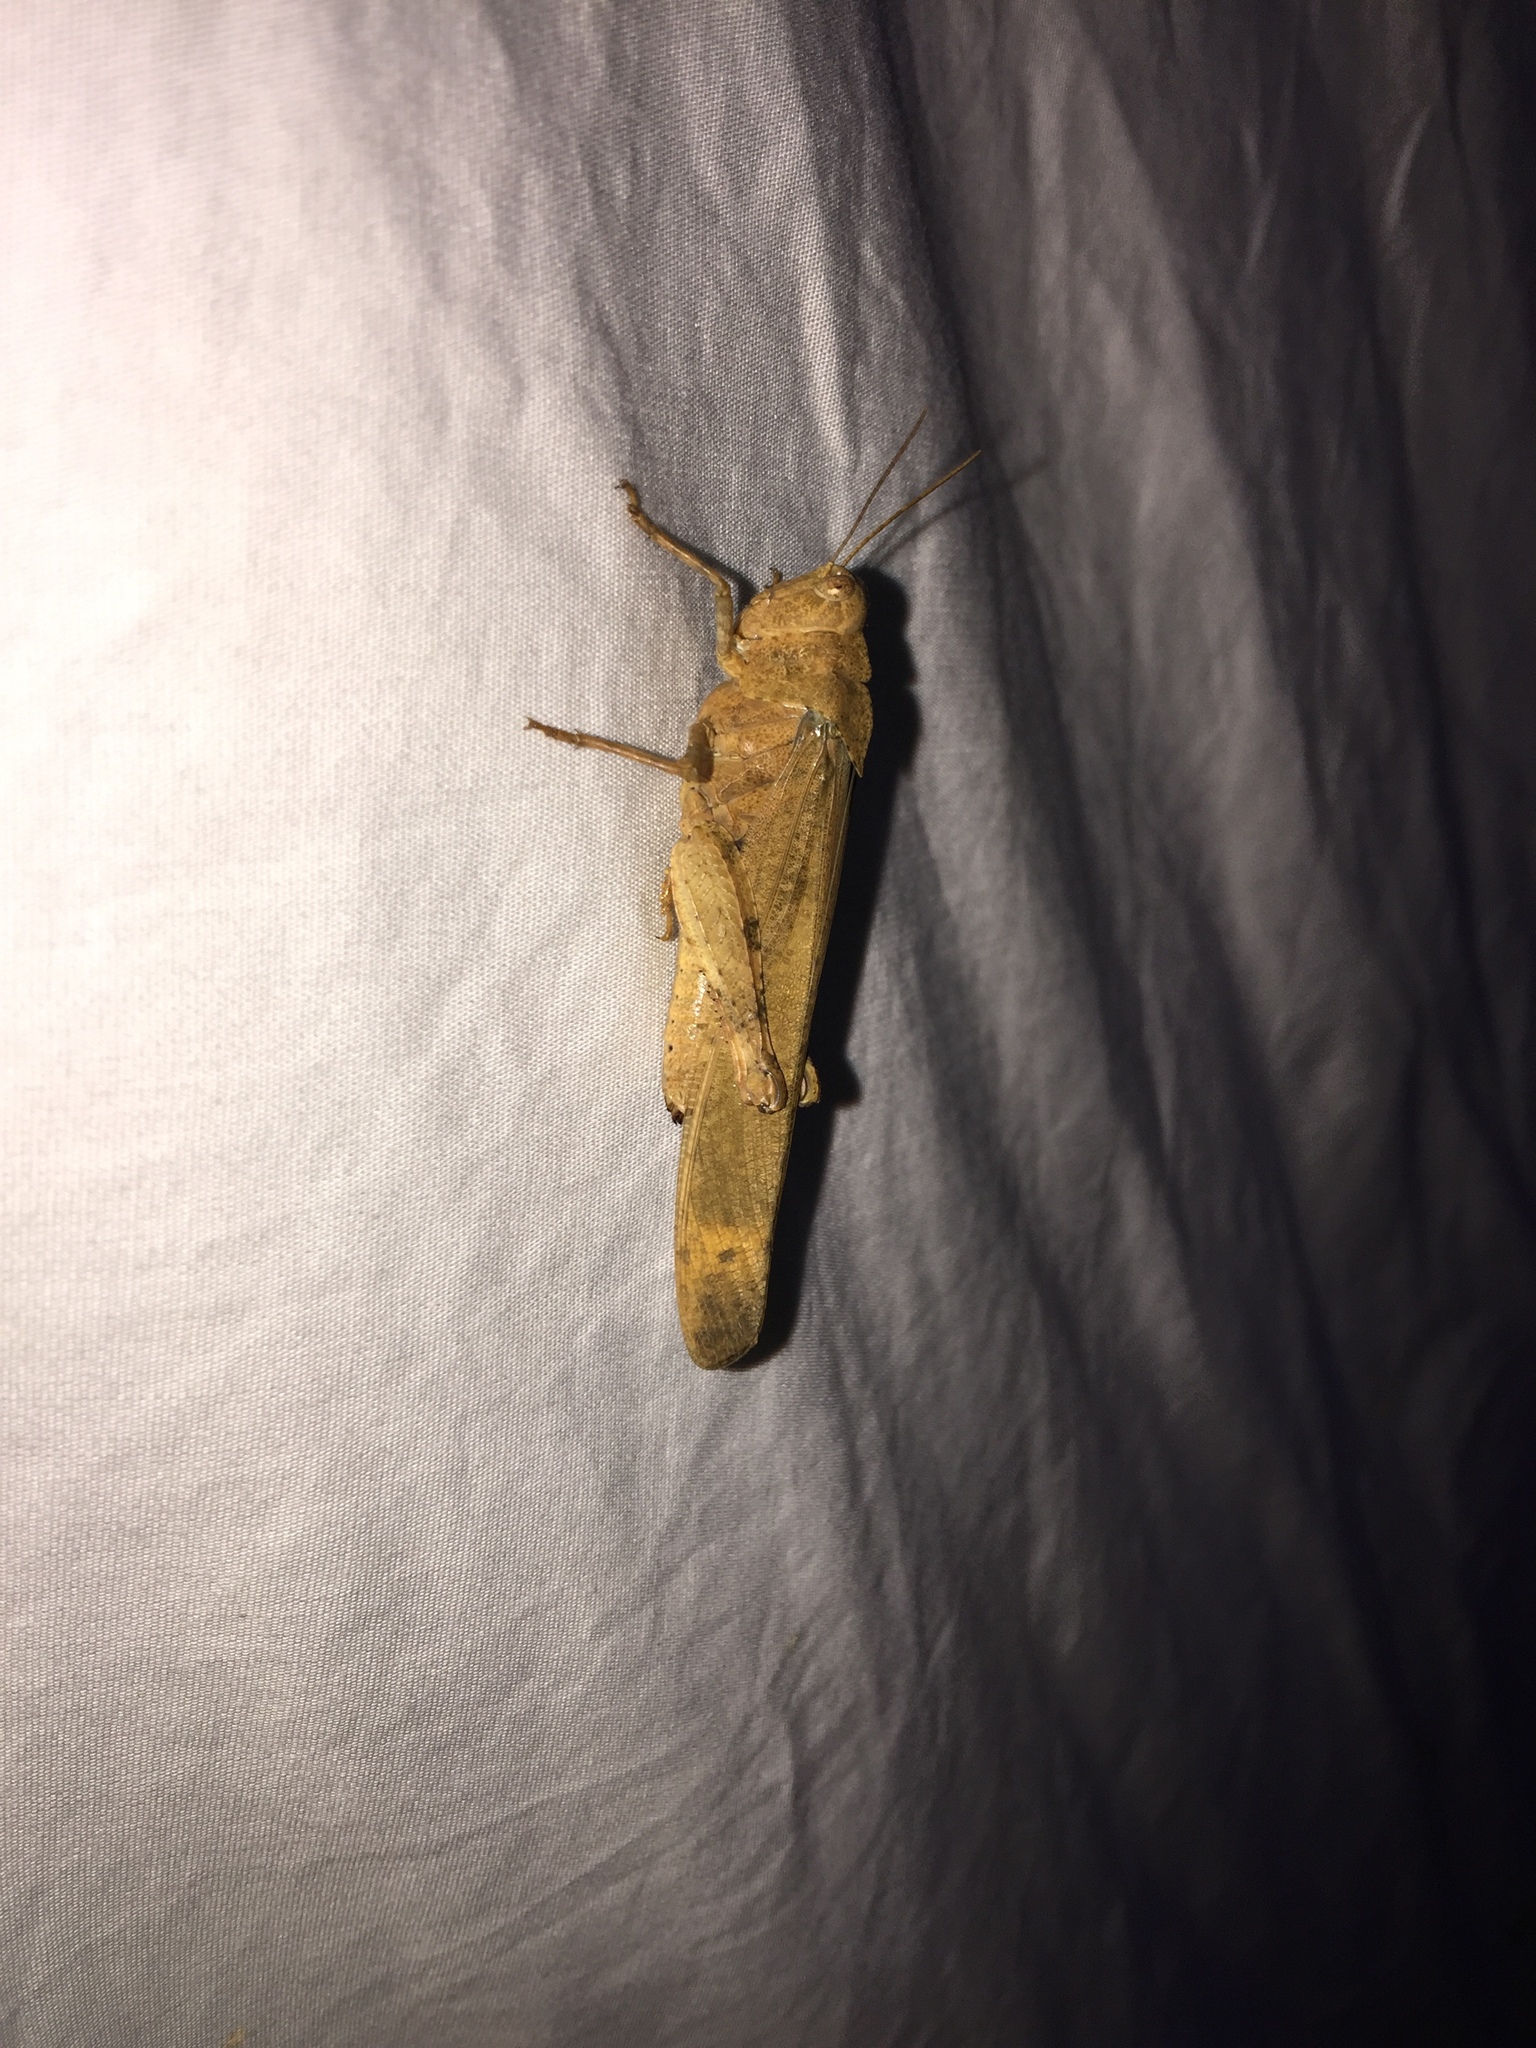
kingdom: Animalia
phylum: Arthropoda
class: Insecta
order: Orthoptera
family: Acrididae
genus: Dissosteira
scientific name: Dissosteira carolina
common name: Carolina grasshopper
